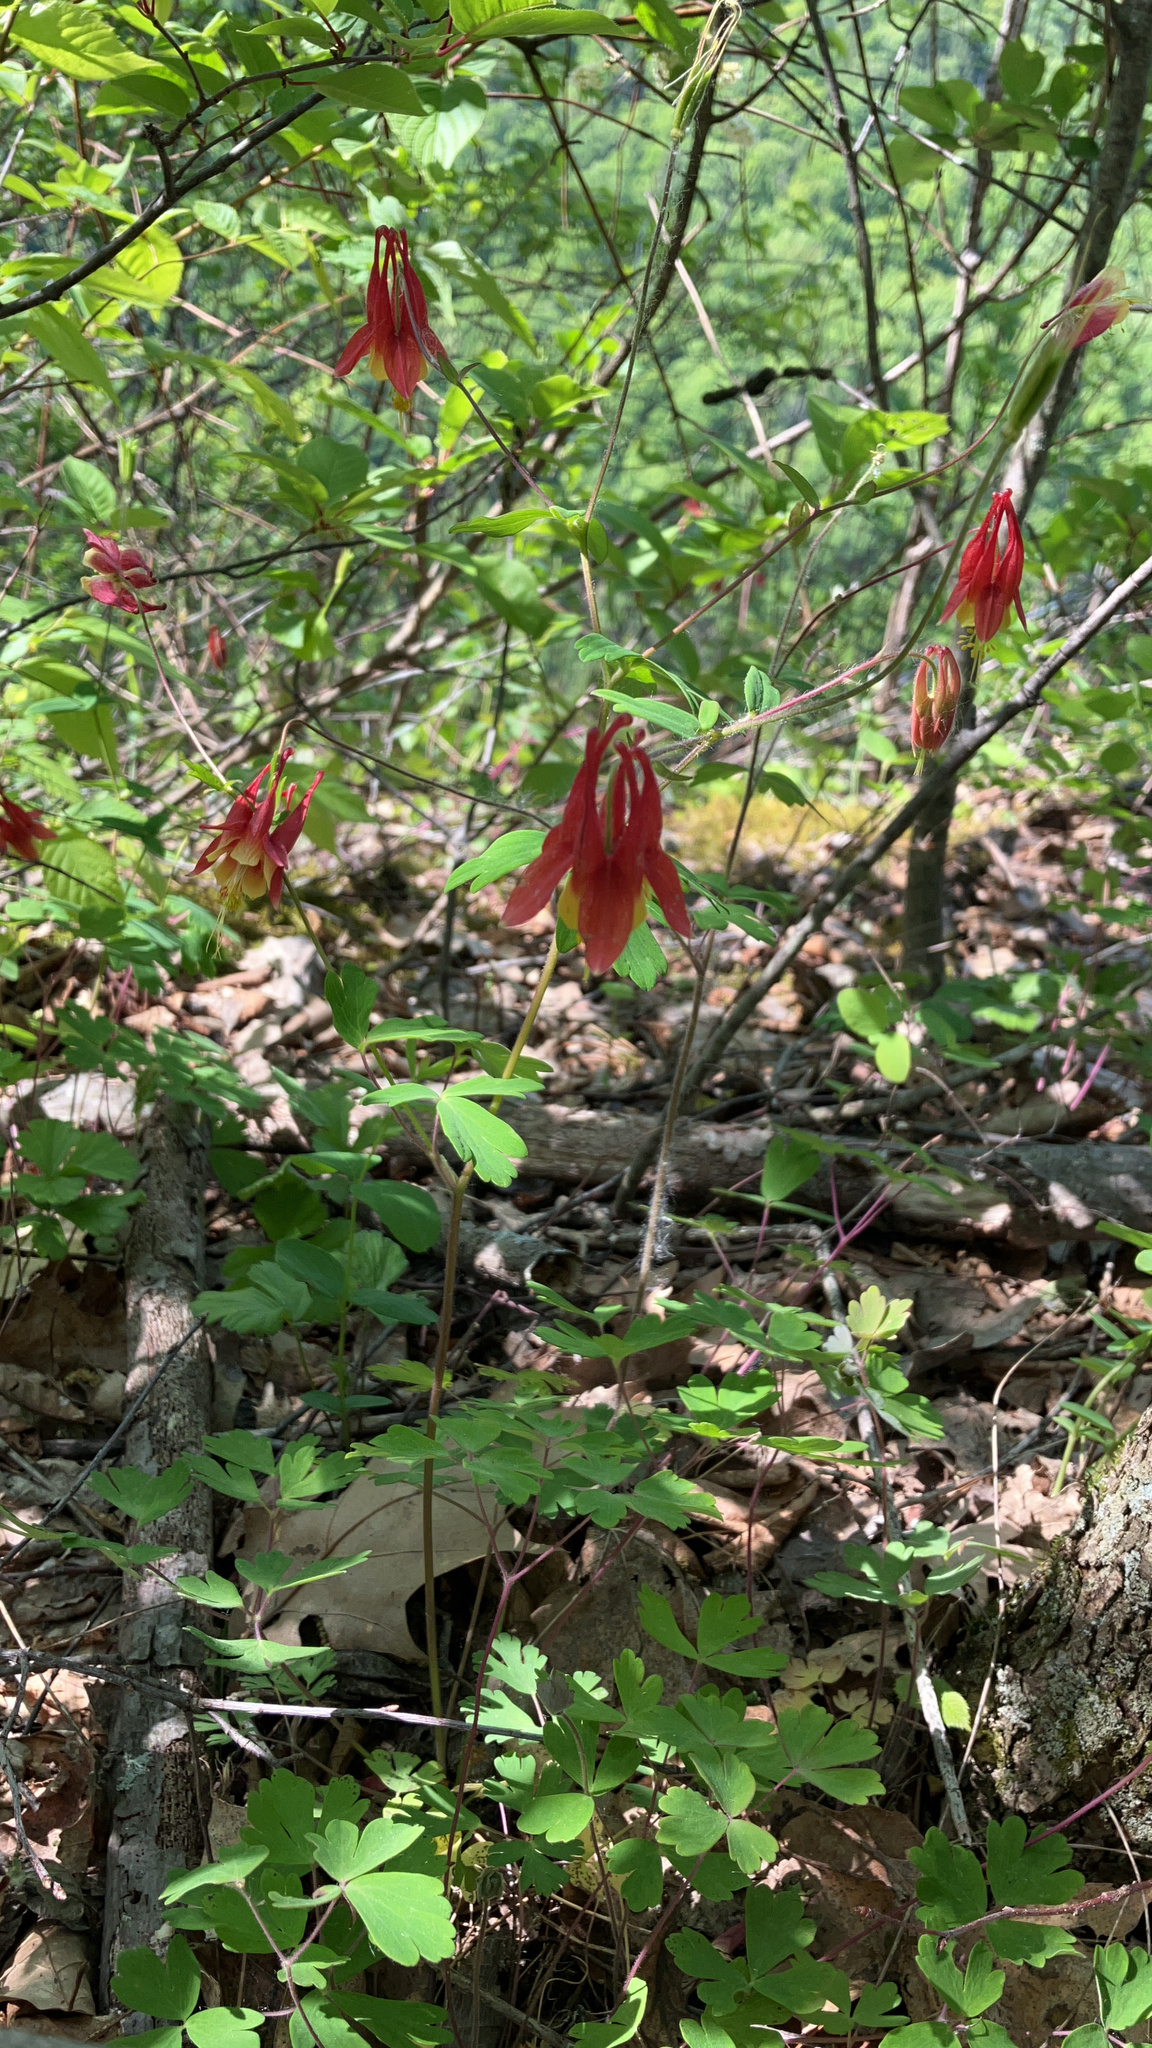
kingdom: Plantae
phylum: Tracheophyta
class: Magnoliopsida
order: Ranunculales
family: Ranunculaceae
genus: Aquilegia
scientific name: Aquilegia canadensis
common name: American columbine
